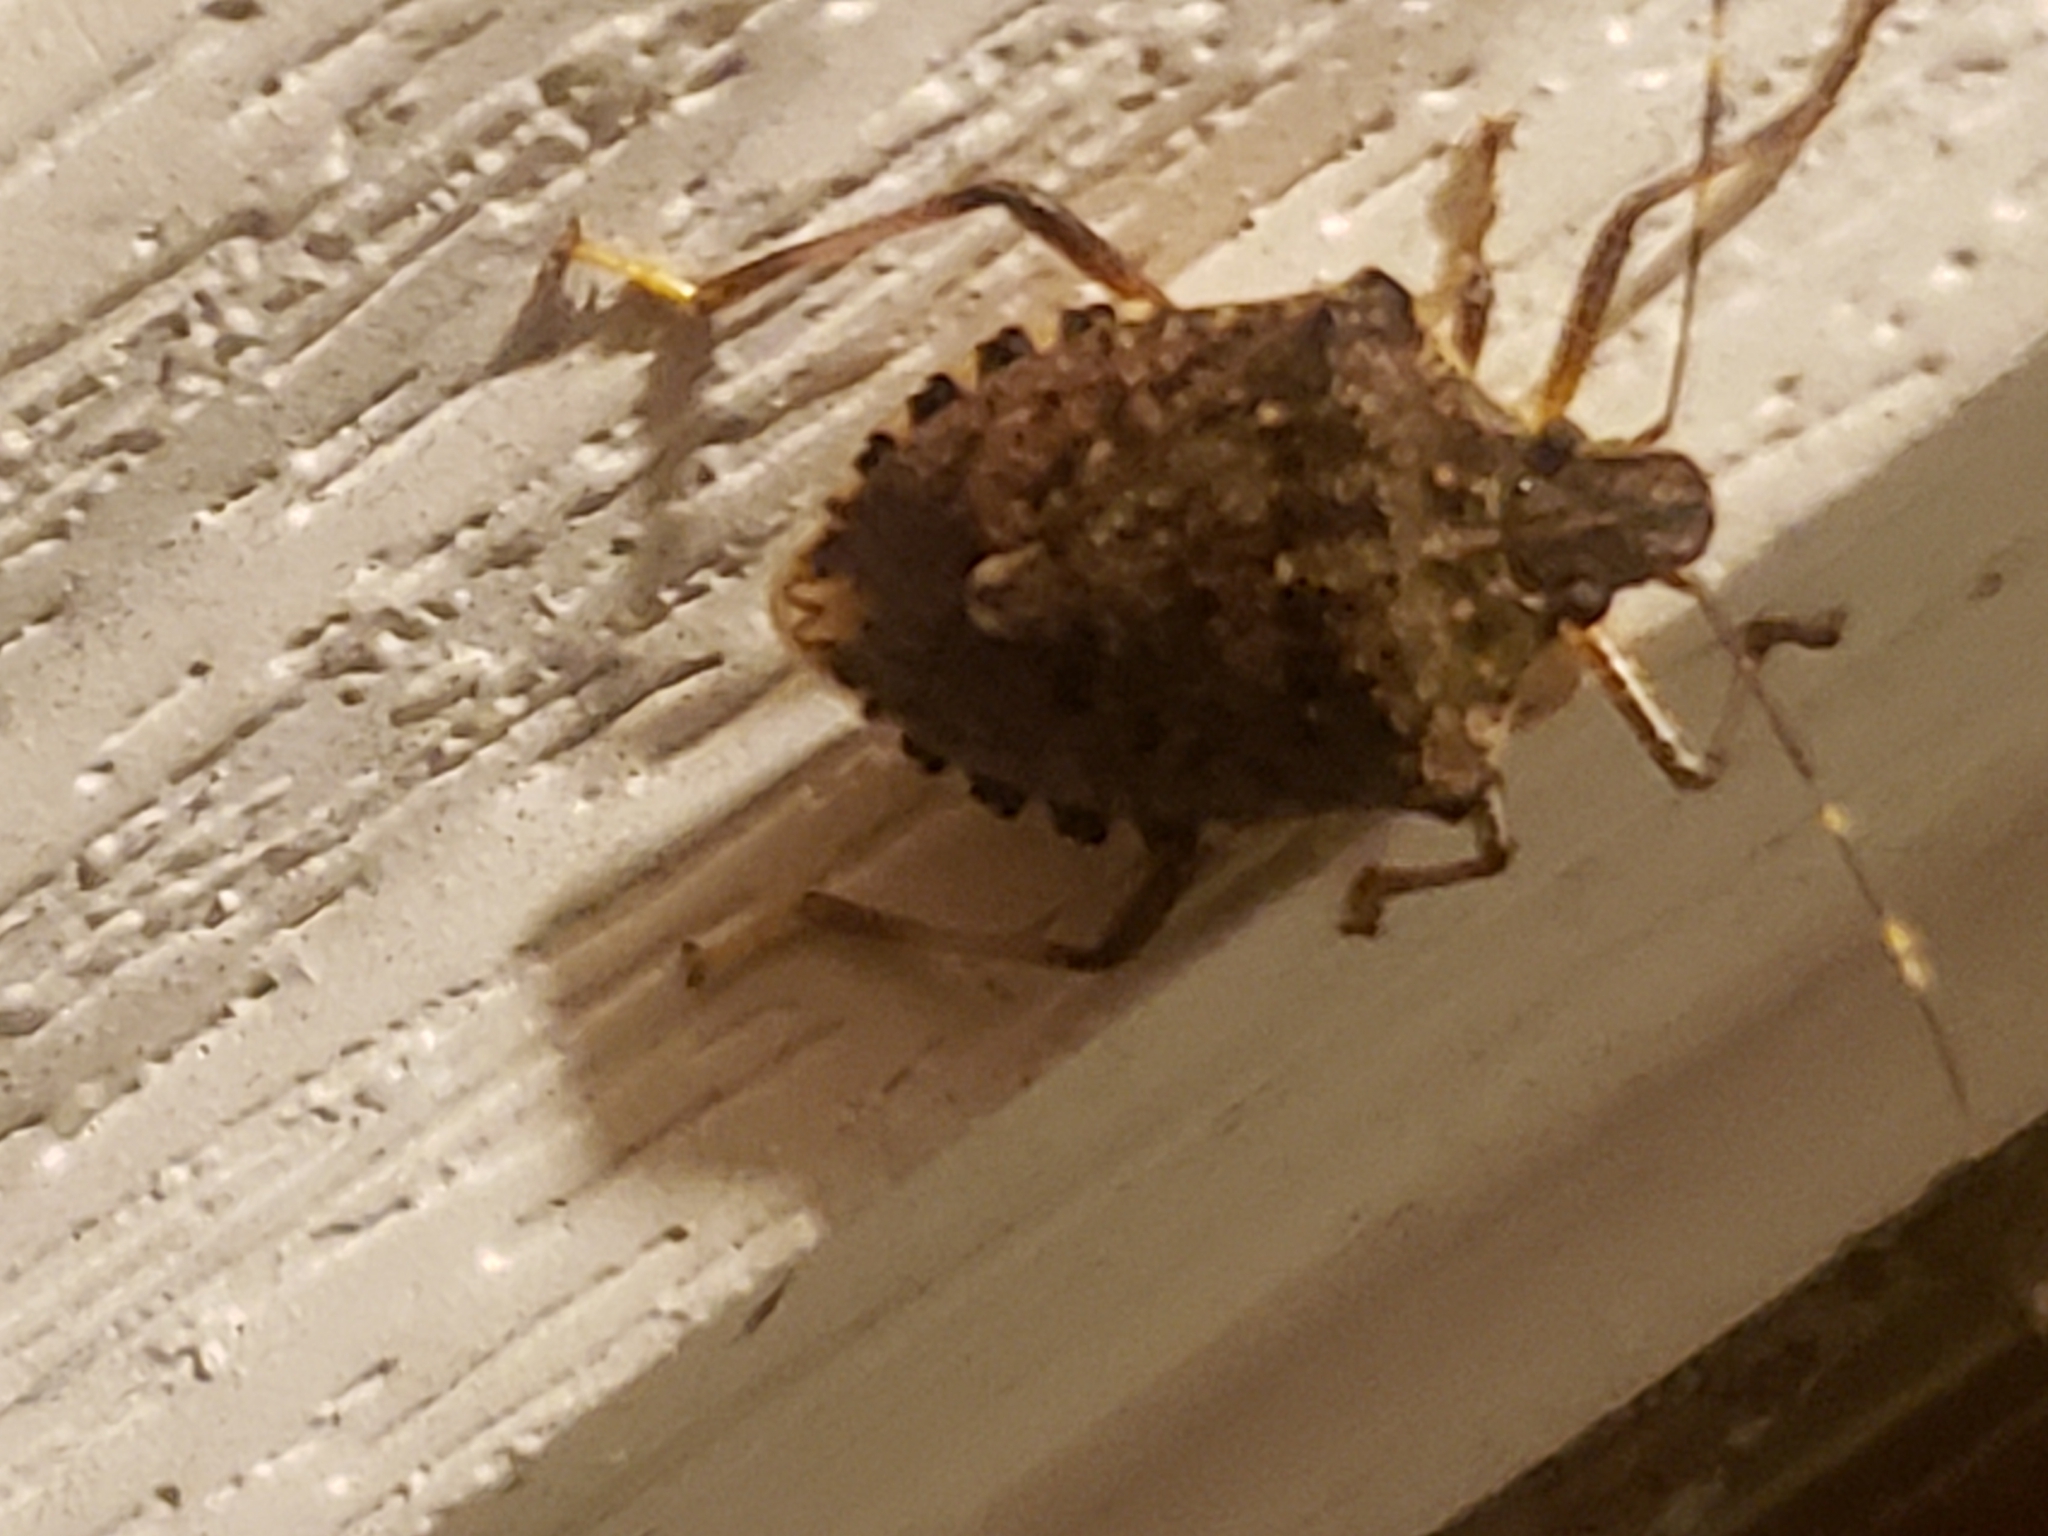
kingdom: Animalia
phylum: Arthropoda
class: Insecta
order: Hemiptera
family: Pentatomidae
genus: Halyomorpha
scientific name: Halyomorpha halys
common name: Brown marmorated stink bug
